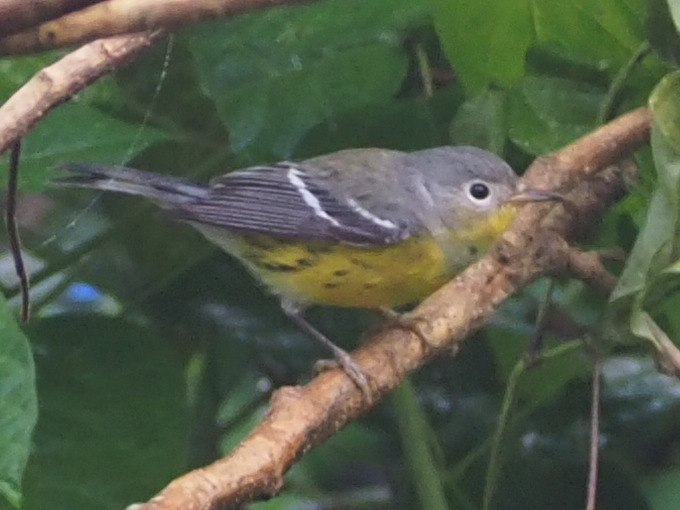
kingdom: Animalia
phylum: Chordata
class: Aves
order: Passeriformes
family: Parulidae
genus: Setophaga
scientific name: Setophaga magnolia
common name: Magnolia warbler
